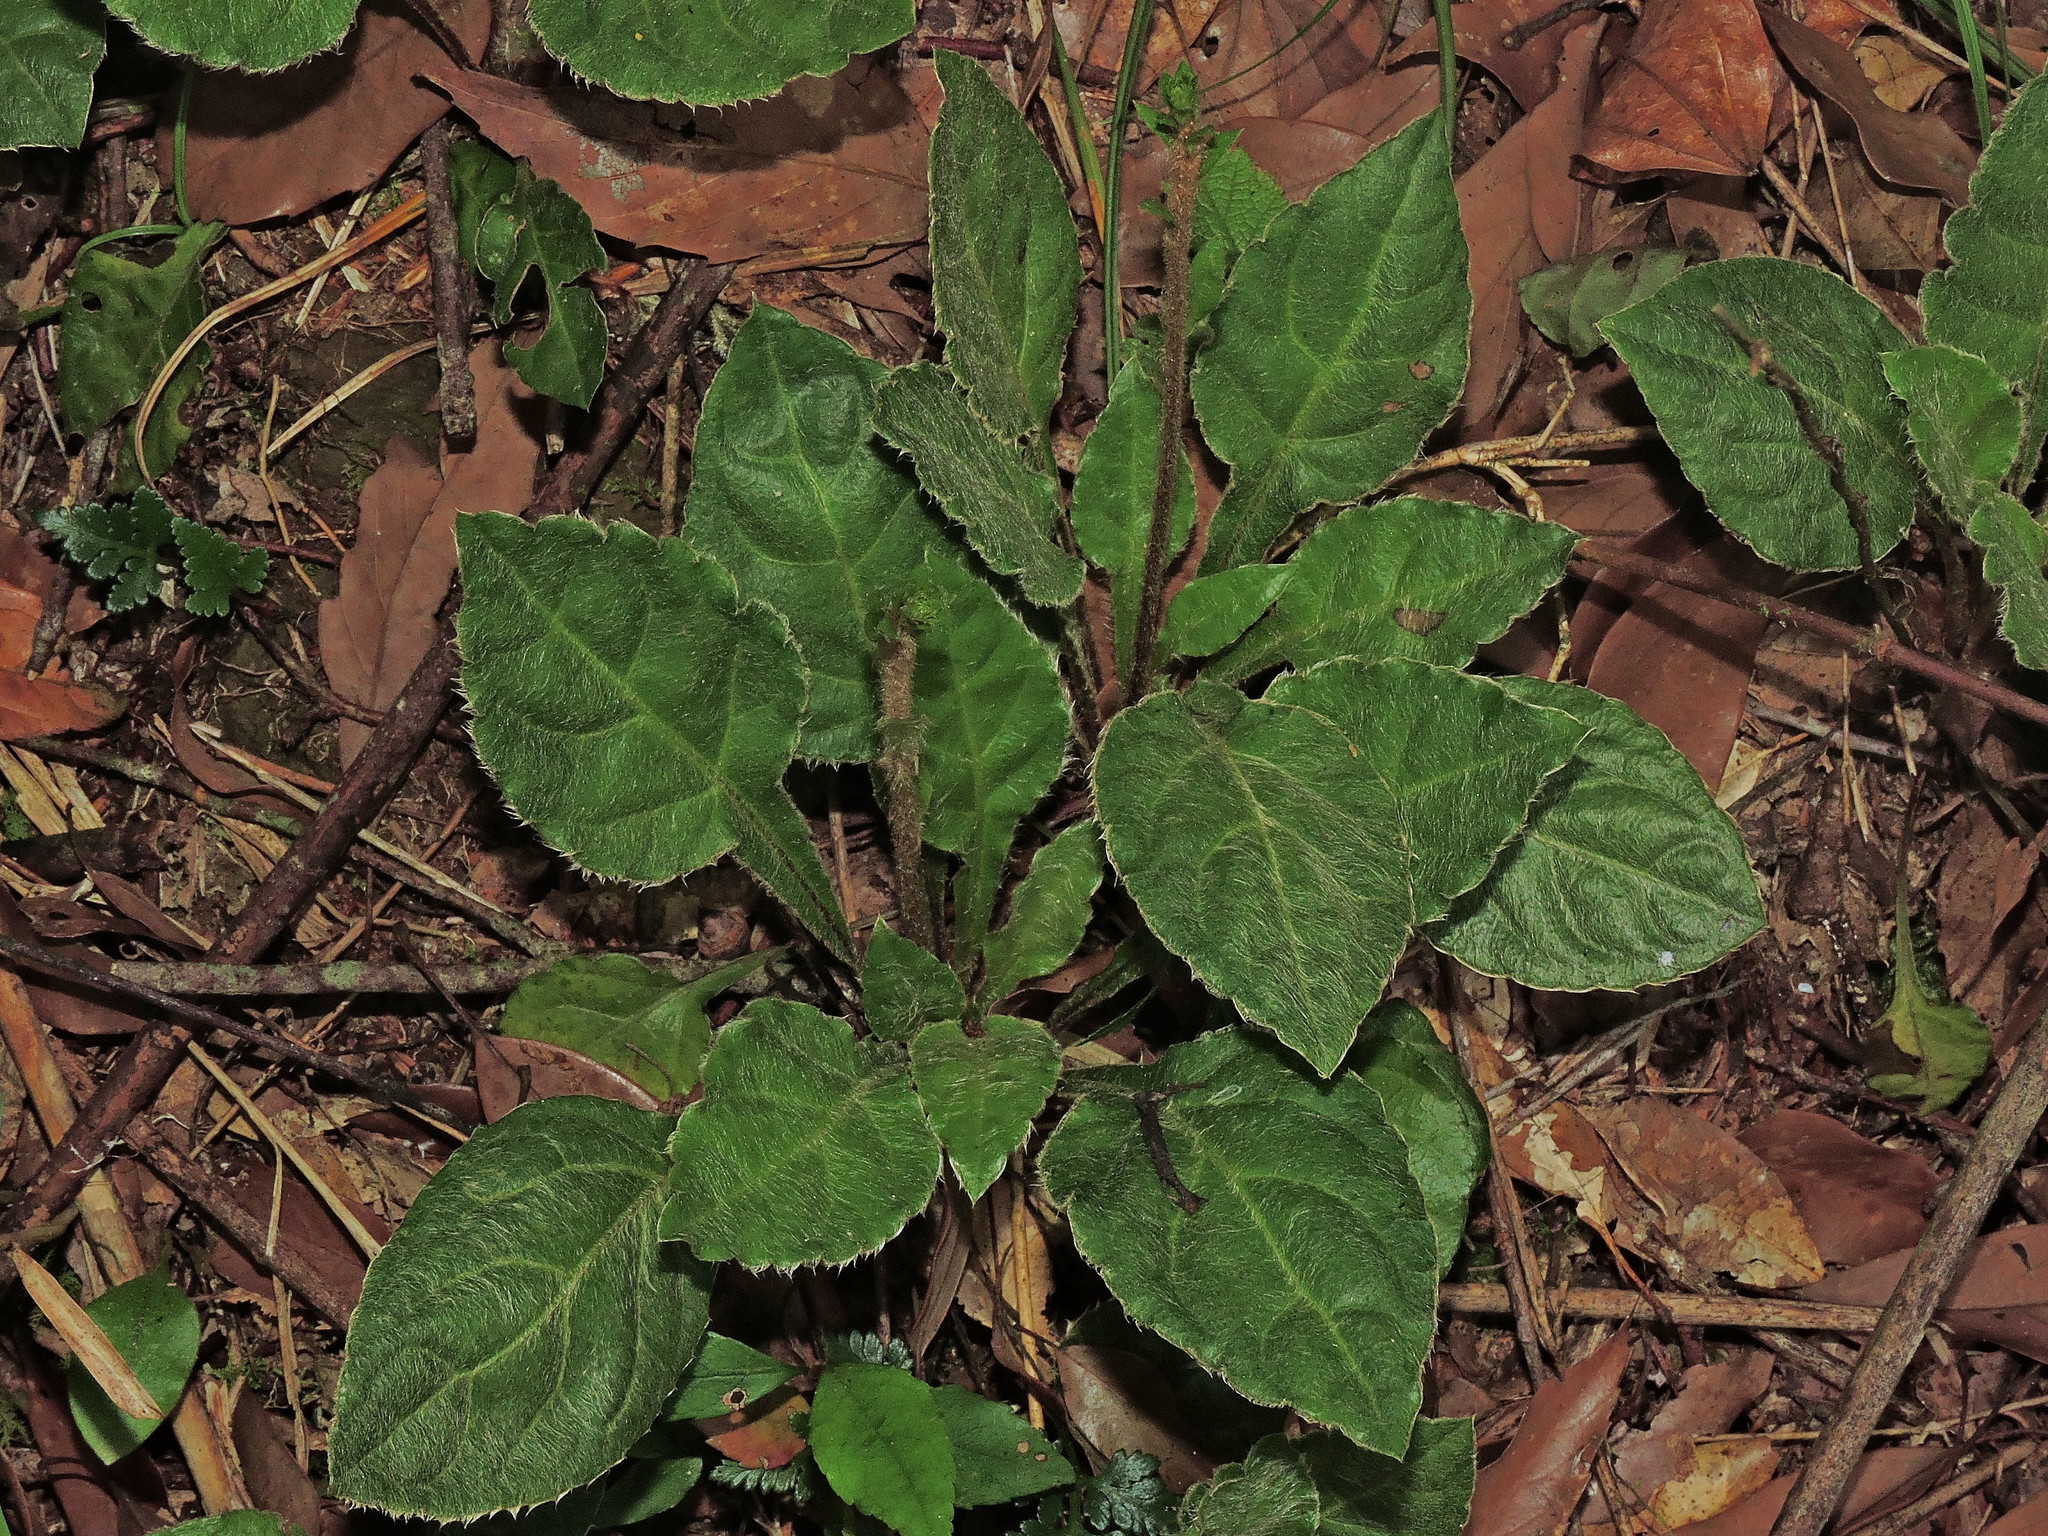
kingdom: Plantae
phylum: Tracheophyta
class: Magnoliopsida
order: Asterales
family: Asteraceae
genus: Ainsliaea
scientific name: Ainsliaea latifolia
